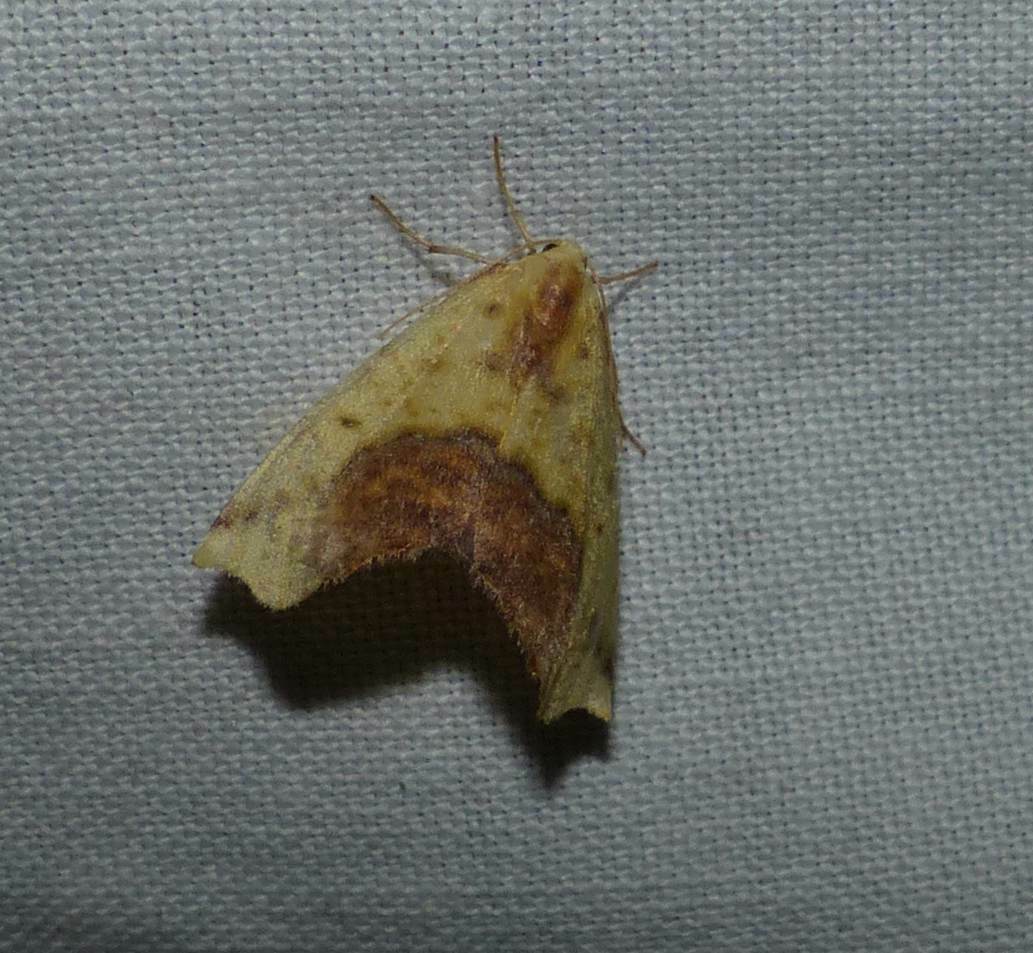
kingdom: Animalia
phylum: Arthropoda
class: Insecta
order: Lepidoptera
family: Geometridae
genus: Sicya
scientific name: Sicya macularia
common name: Sharp-lined yellow
